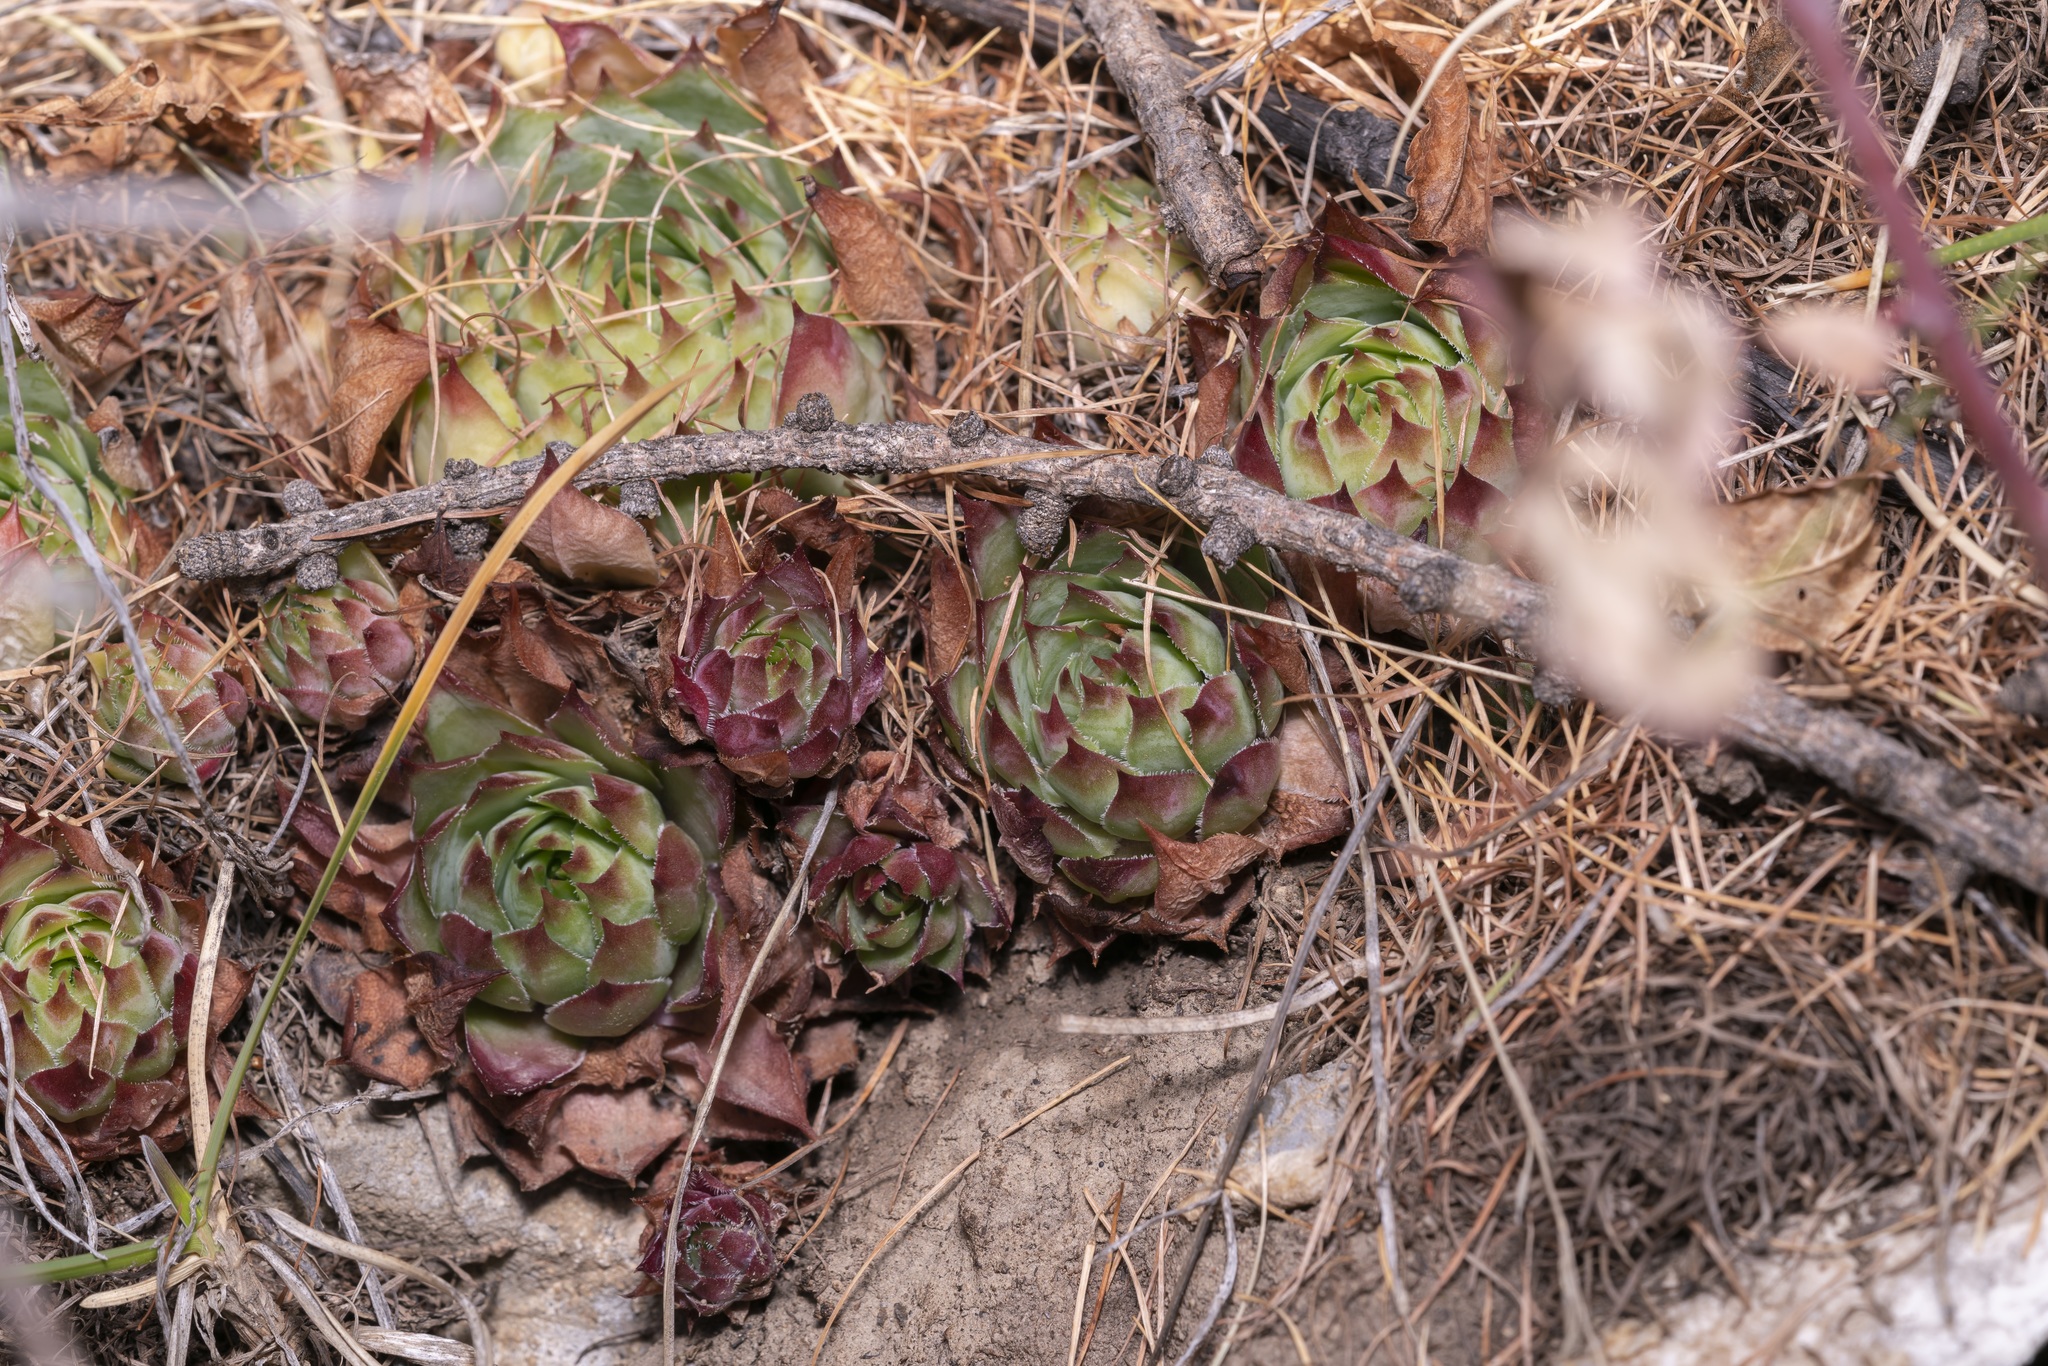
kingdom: Plantae
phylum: Tracheophyta
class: Magnoliopsida
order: Saxifragales
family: Crassulaceae
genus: Sempervivum
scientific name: Sempervivum tectorum
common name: House-leek
